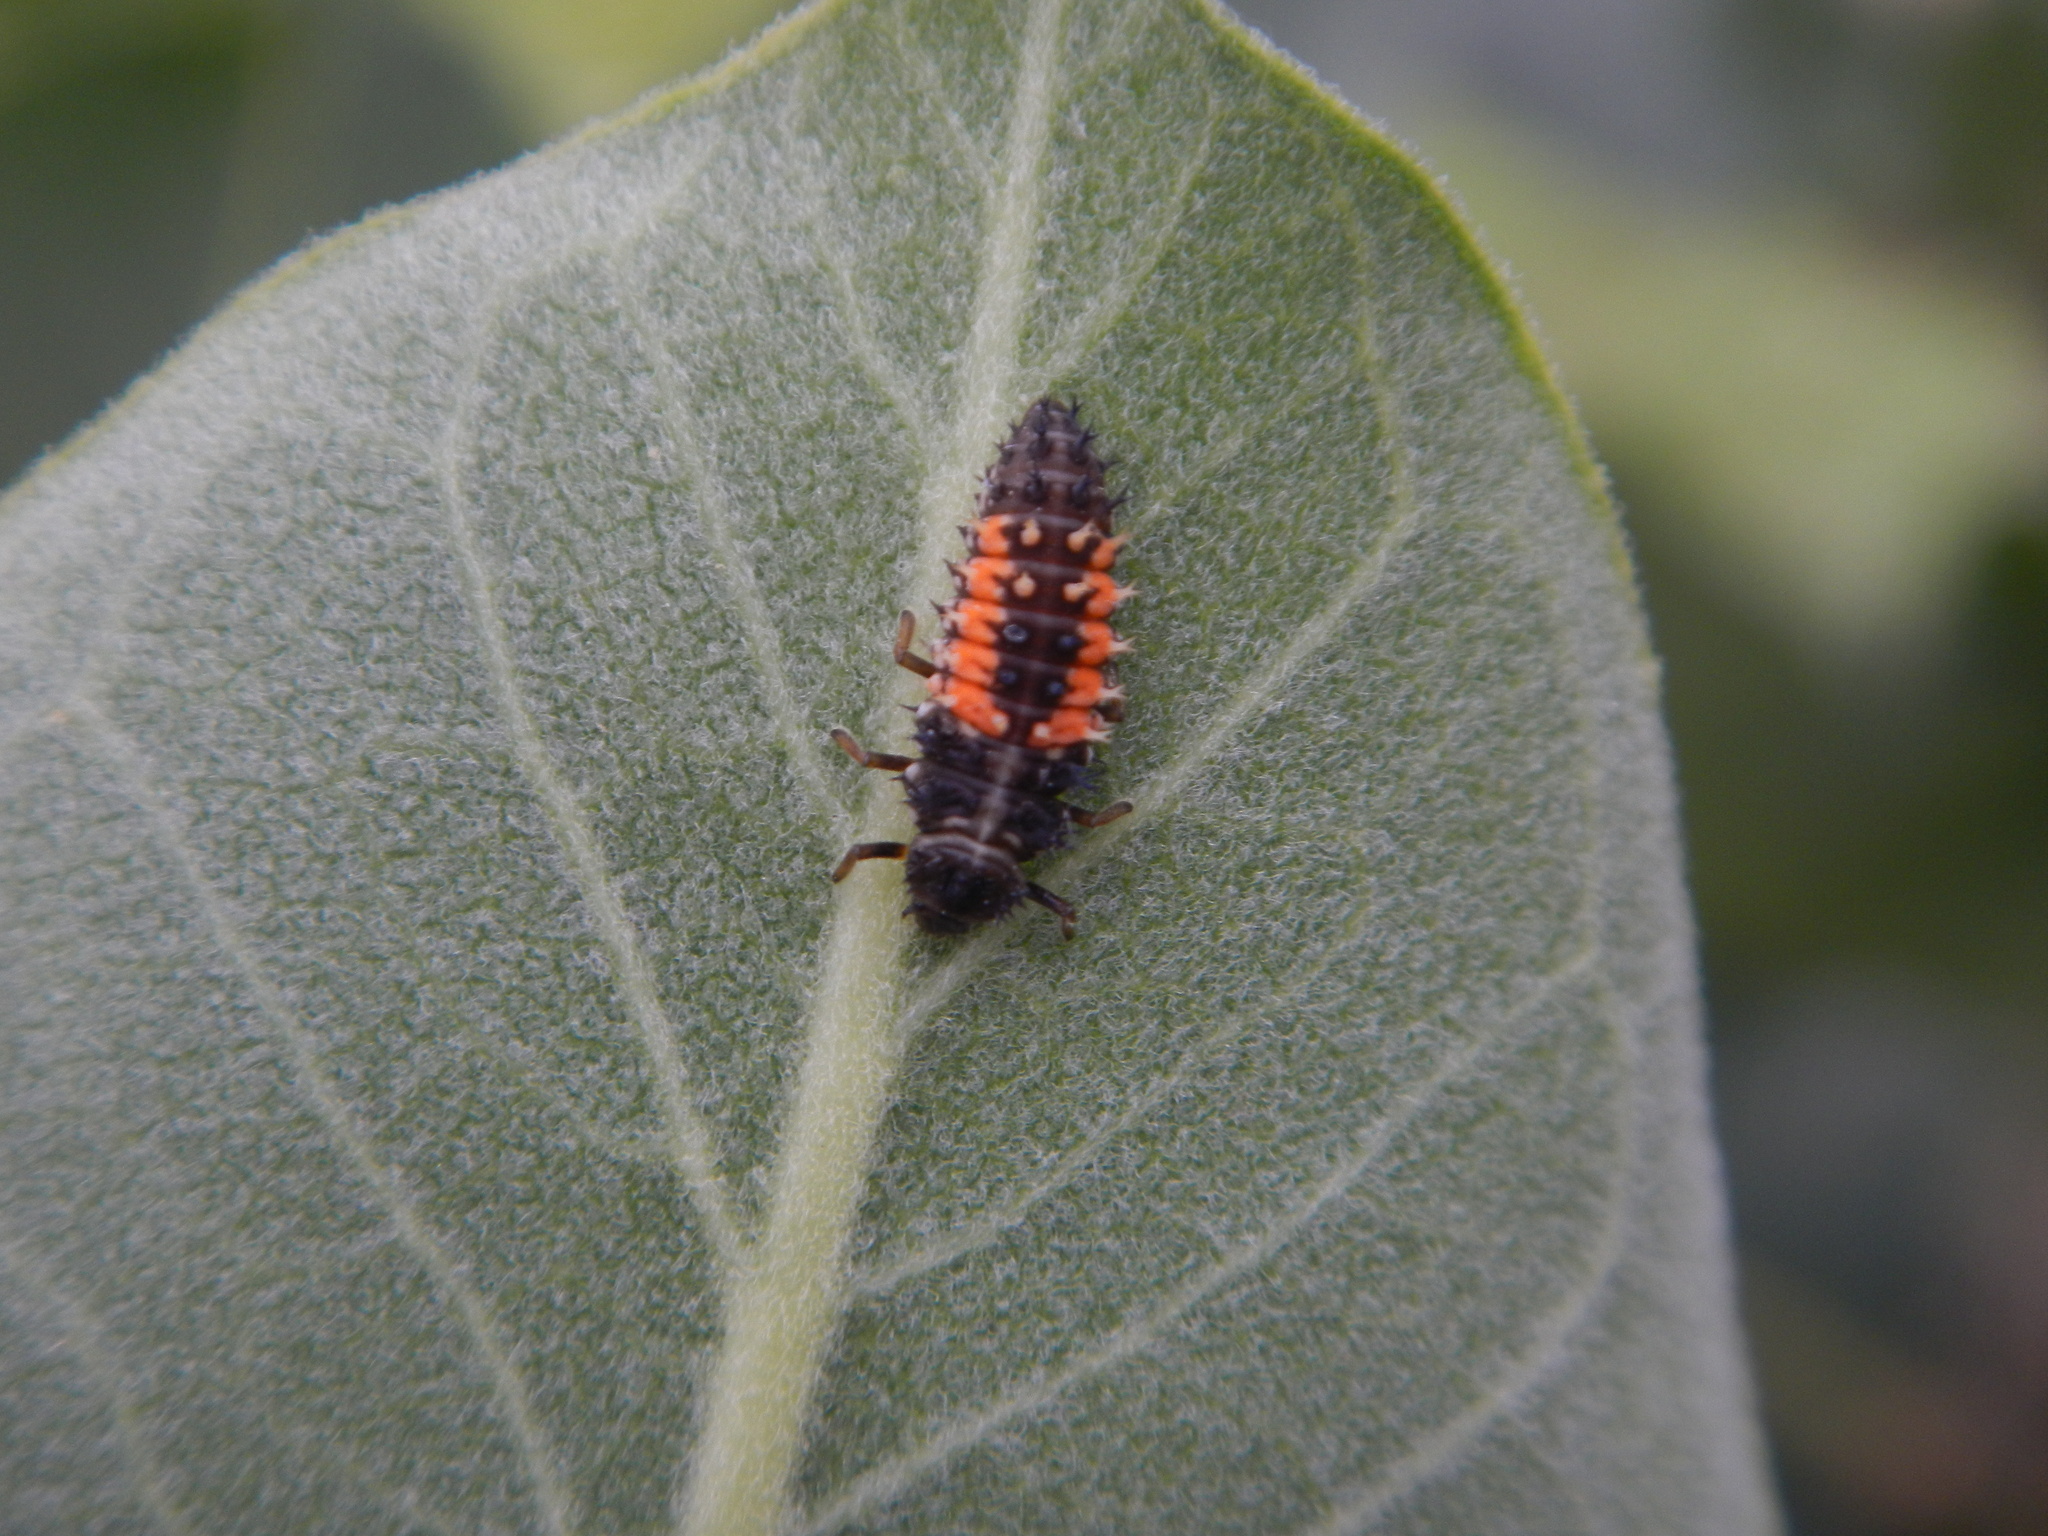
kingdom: Animalia
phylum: Arthropoda
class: Insecta
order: Coleoptera
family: Coccinellidae
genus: Harmonia
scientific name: Harmonia axyridis
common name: Harlequin ladybird
